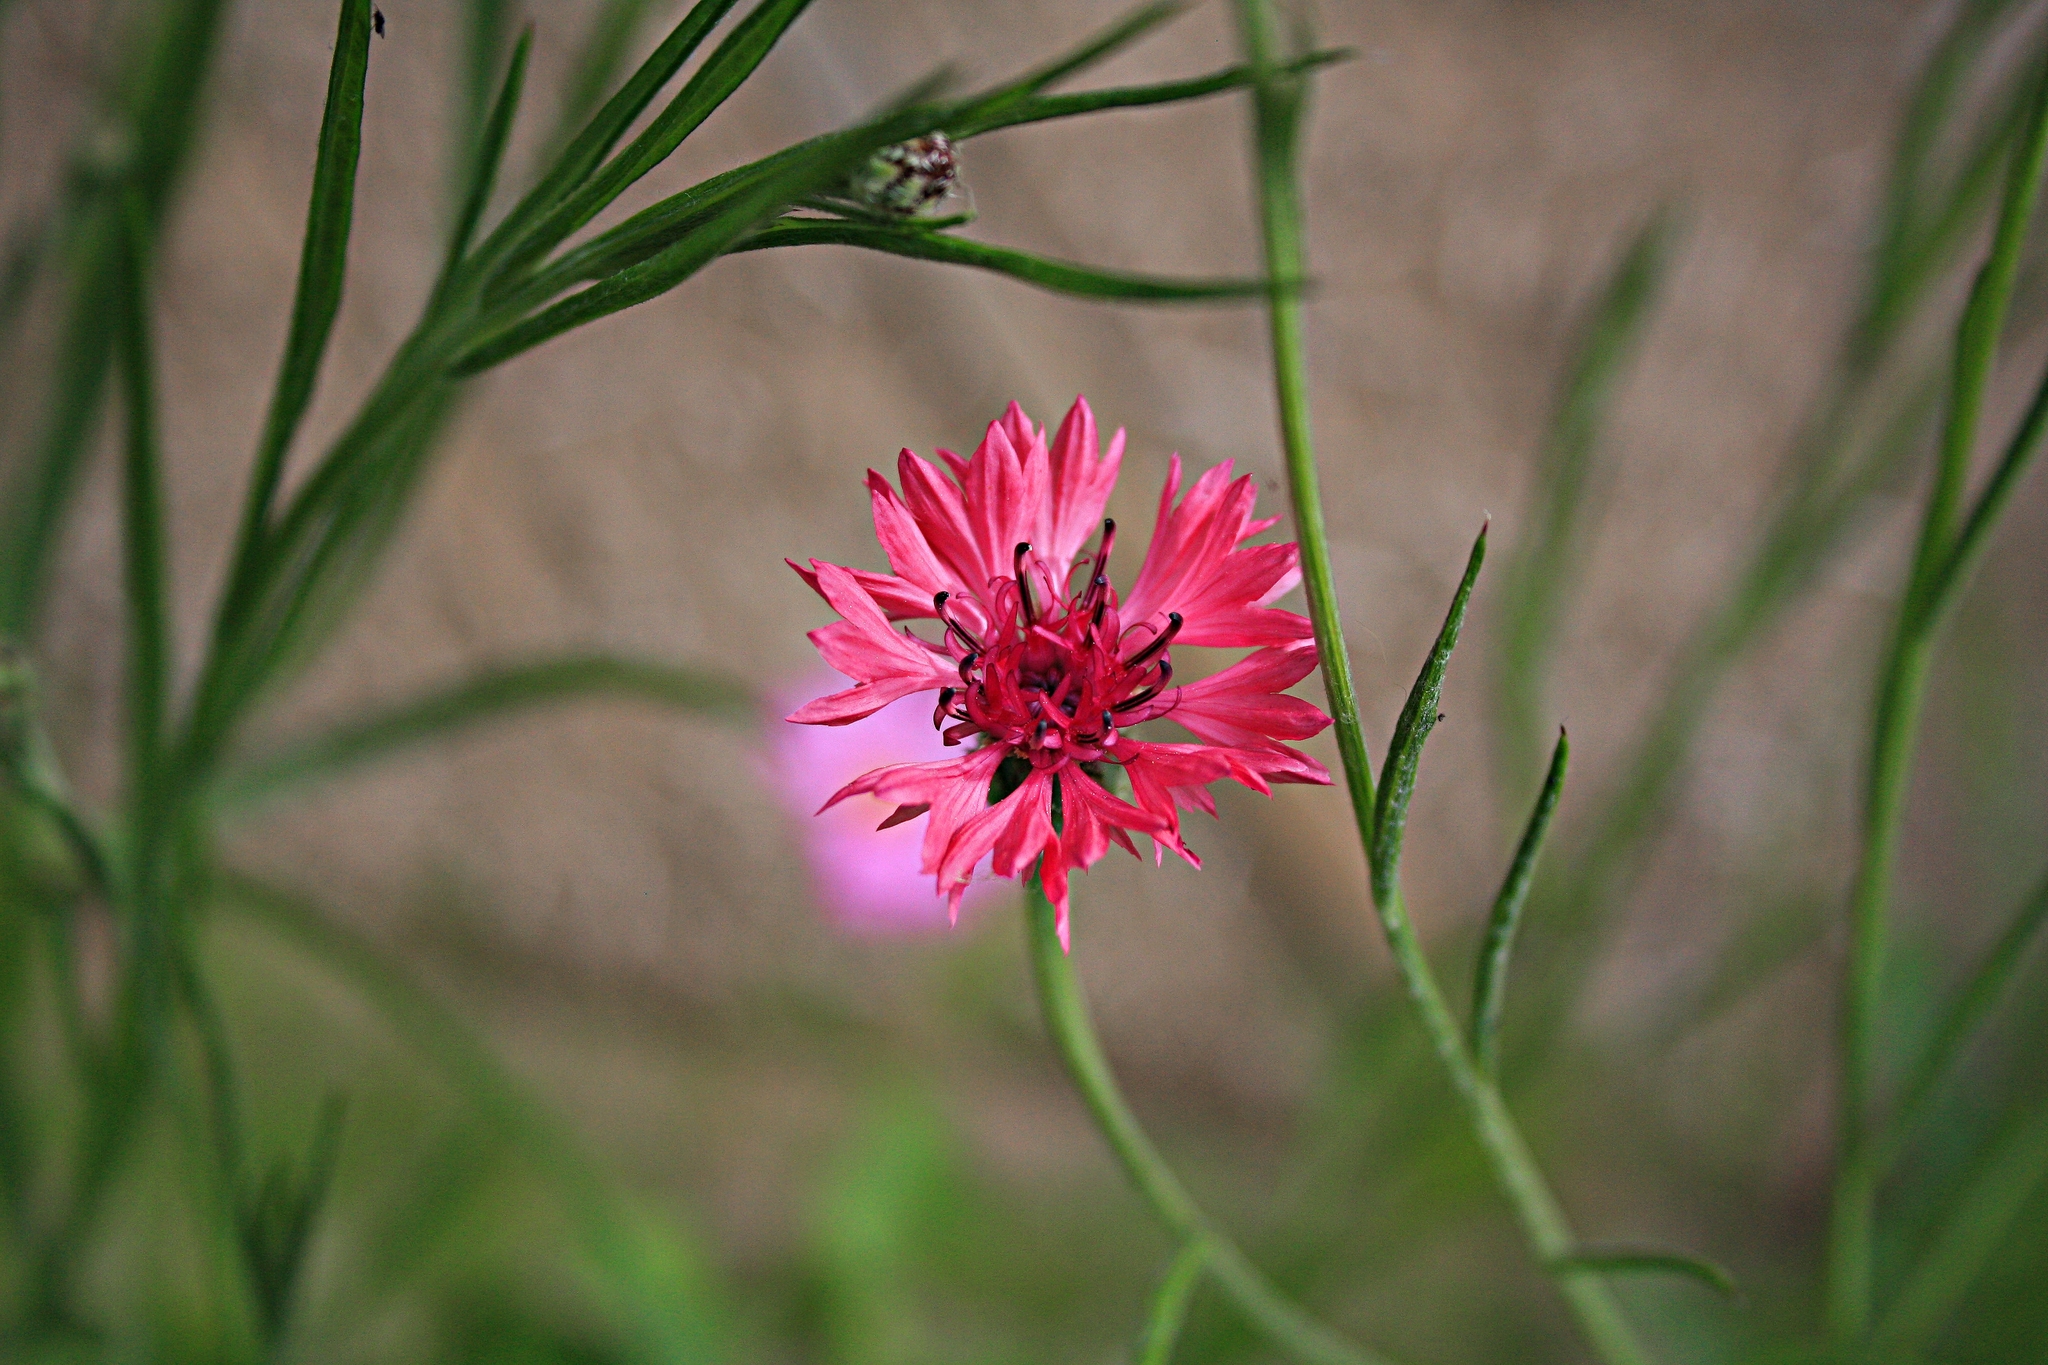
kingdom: Plantae
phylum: Tracheophyta
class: Magnoliopsida
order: Asterales
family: Asteraceae
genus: Centaurea
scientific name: Centaurea cyanus
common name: Cornflower
